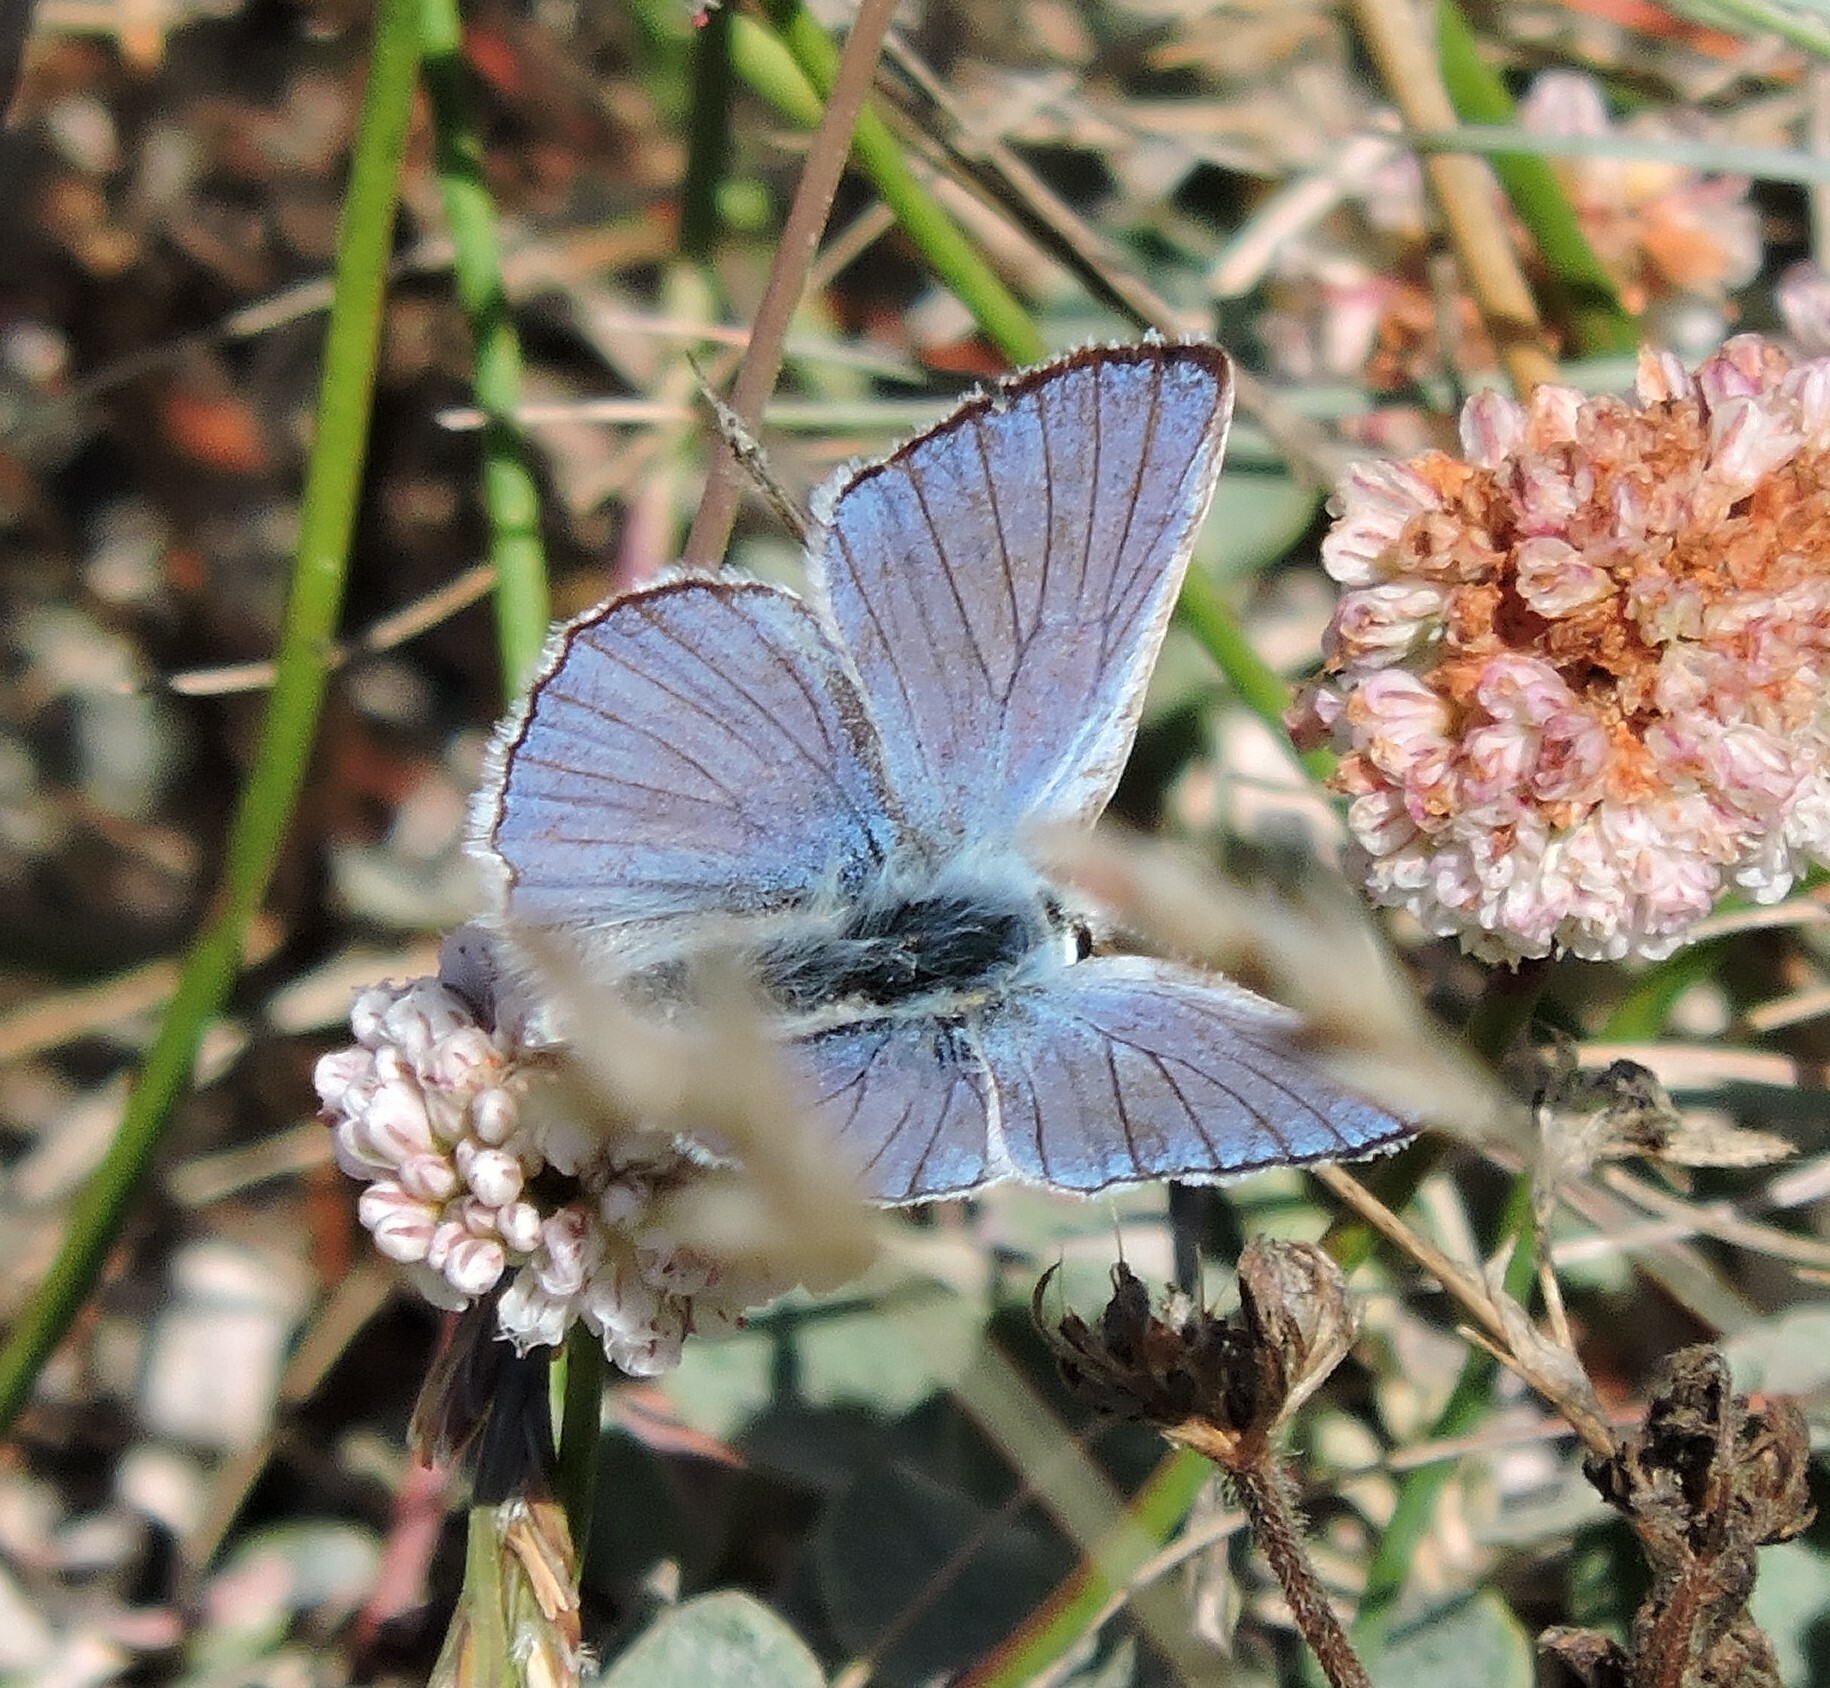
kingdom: Animalia
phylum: Arthropoda
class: Insecta
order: Lepidoptera
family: Lycaenidae
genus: Tharsalea
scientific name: Tharsalea heteronea
